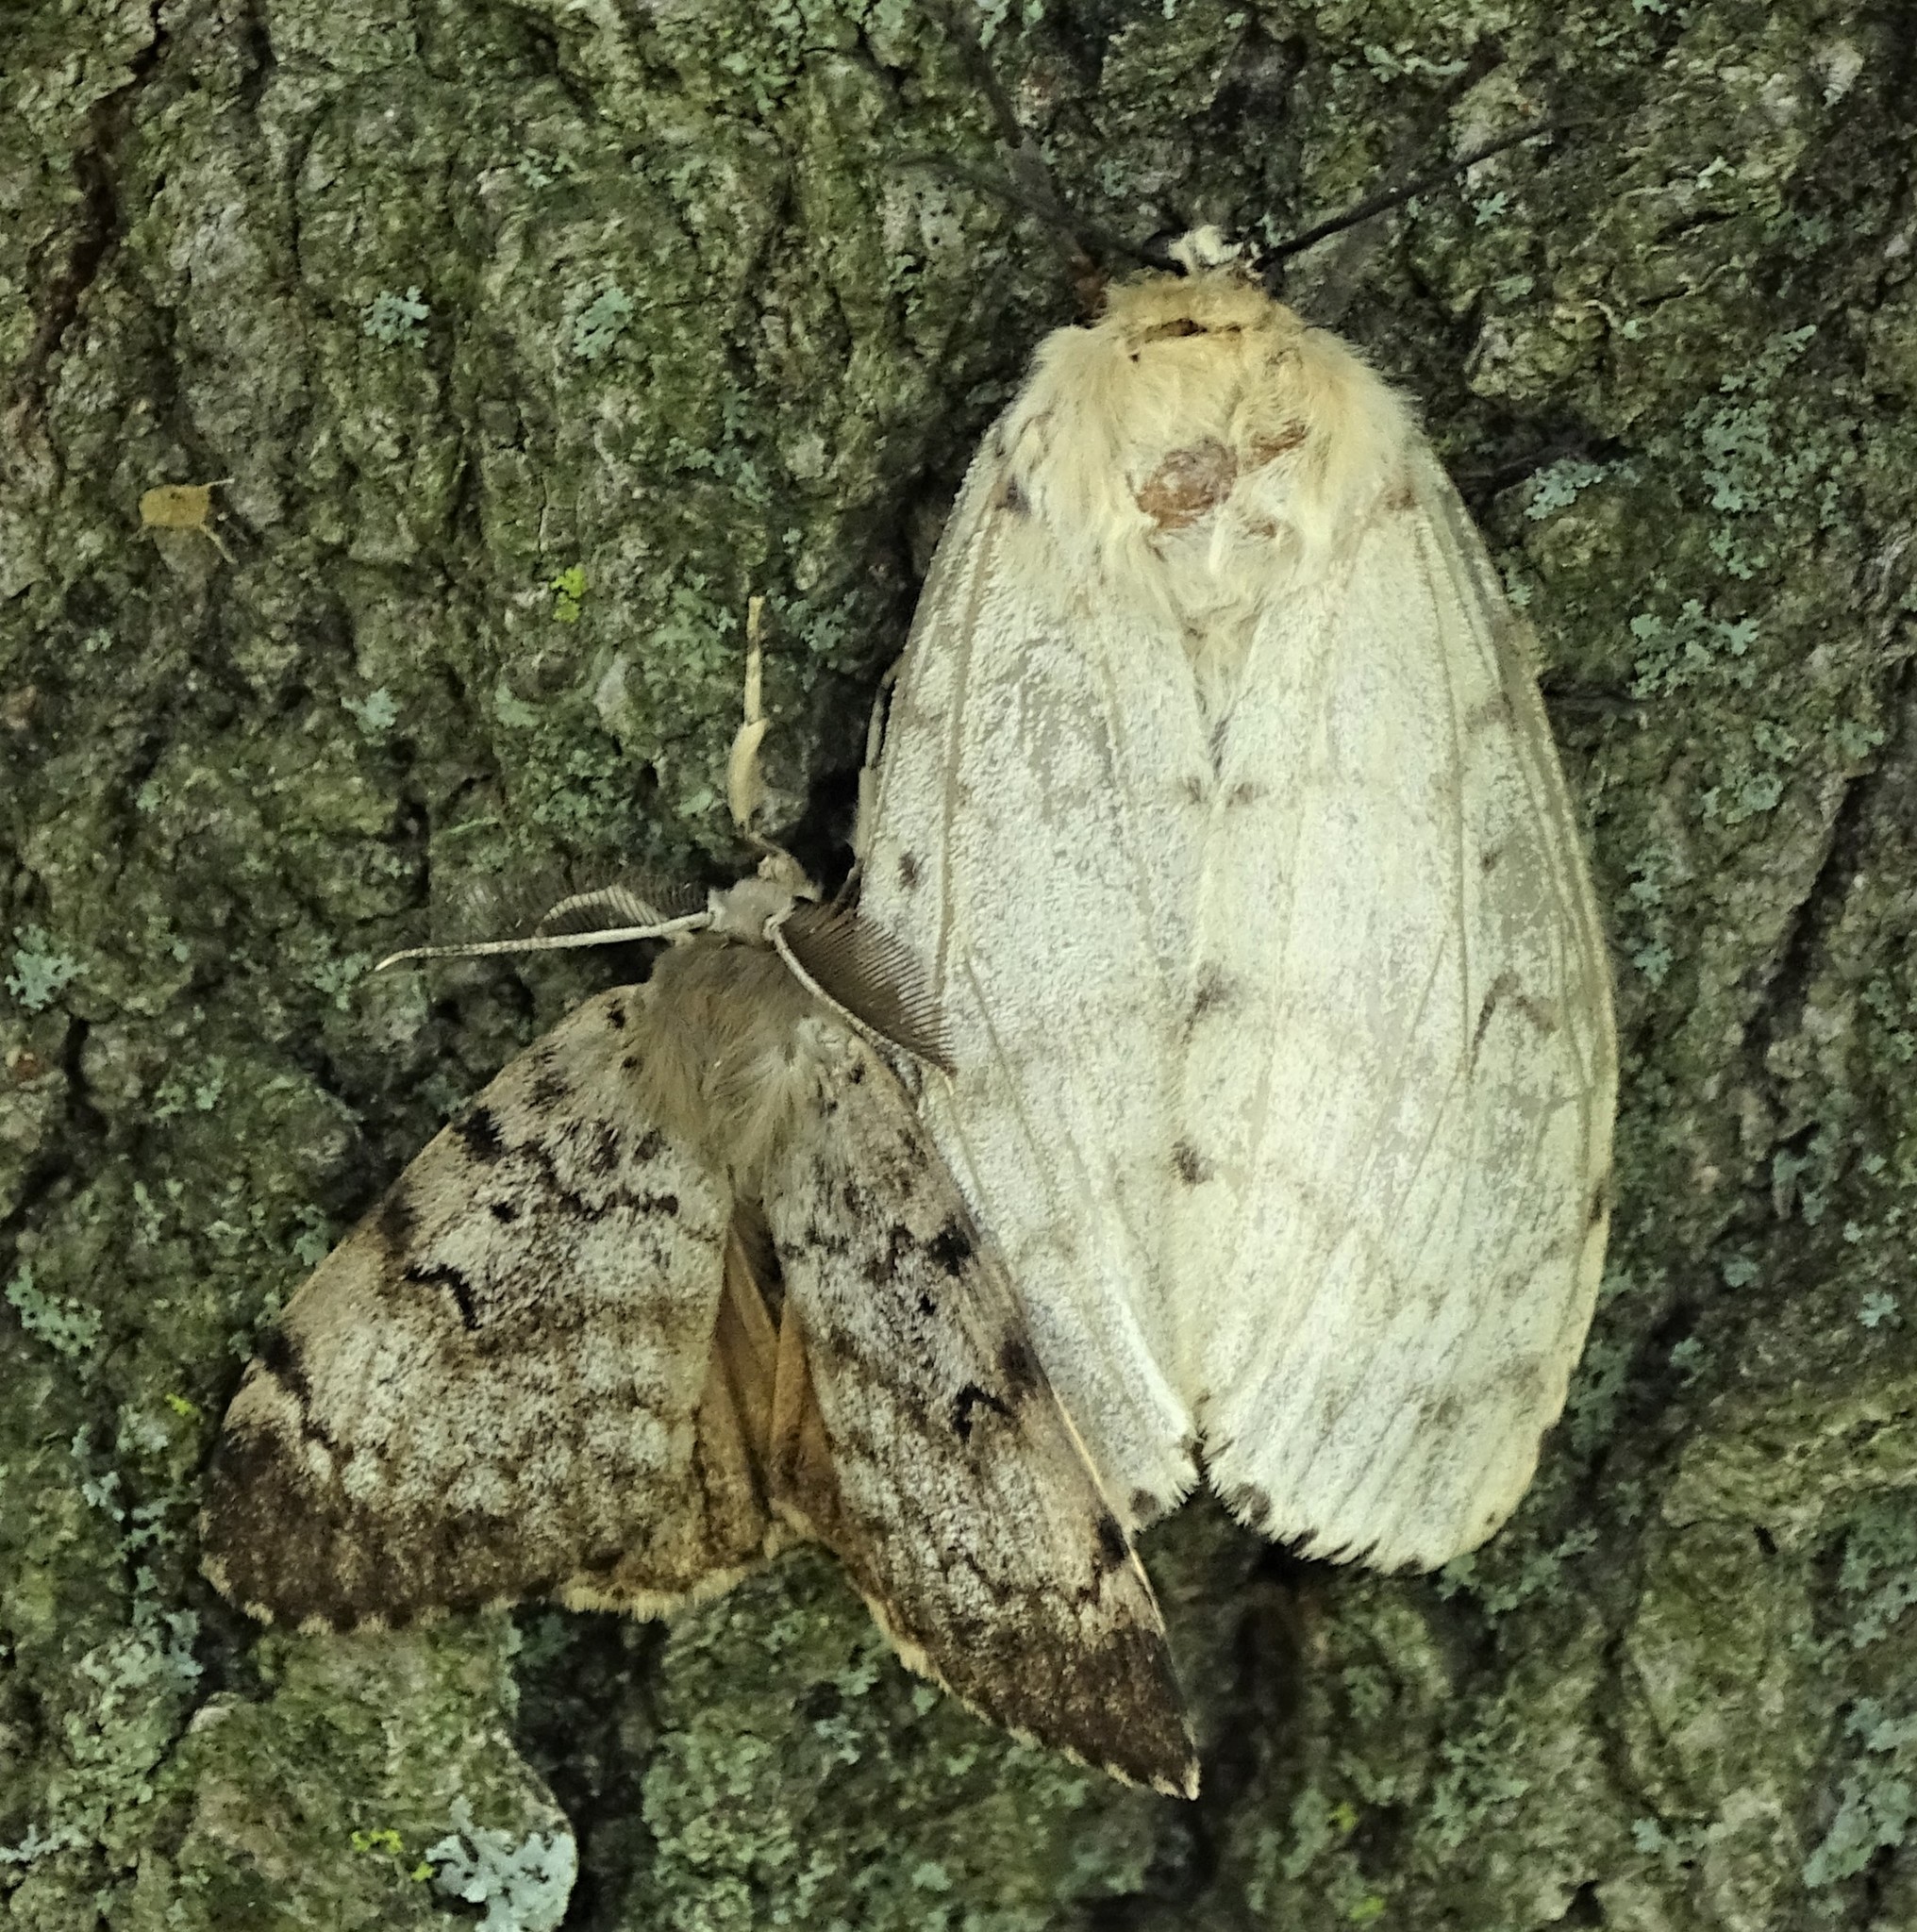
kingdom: Animalia
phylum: Arthropoda
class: Insecta
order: Lepidoptera
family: Erebidae
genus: Lymantria
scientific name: Lymantria dispar
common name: Gypsy moth
